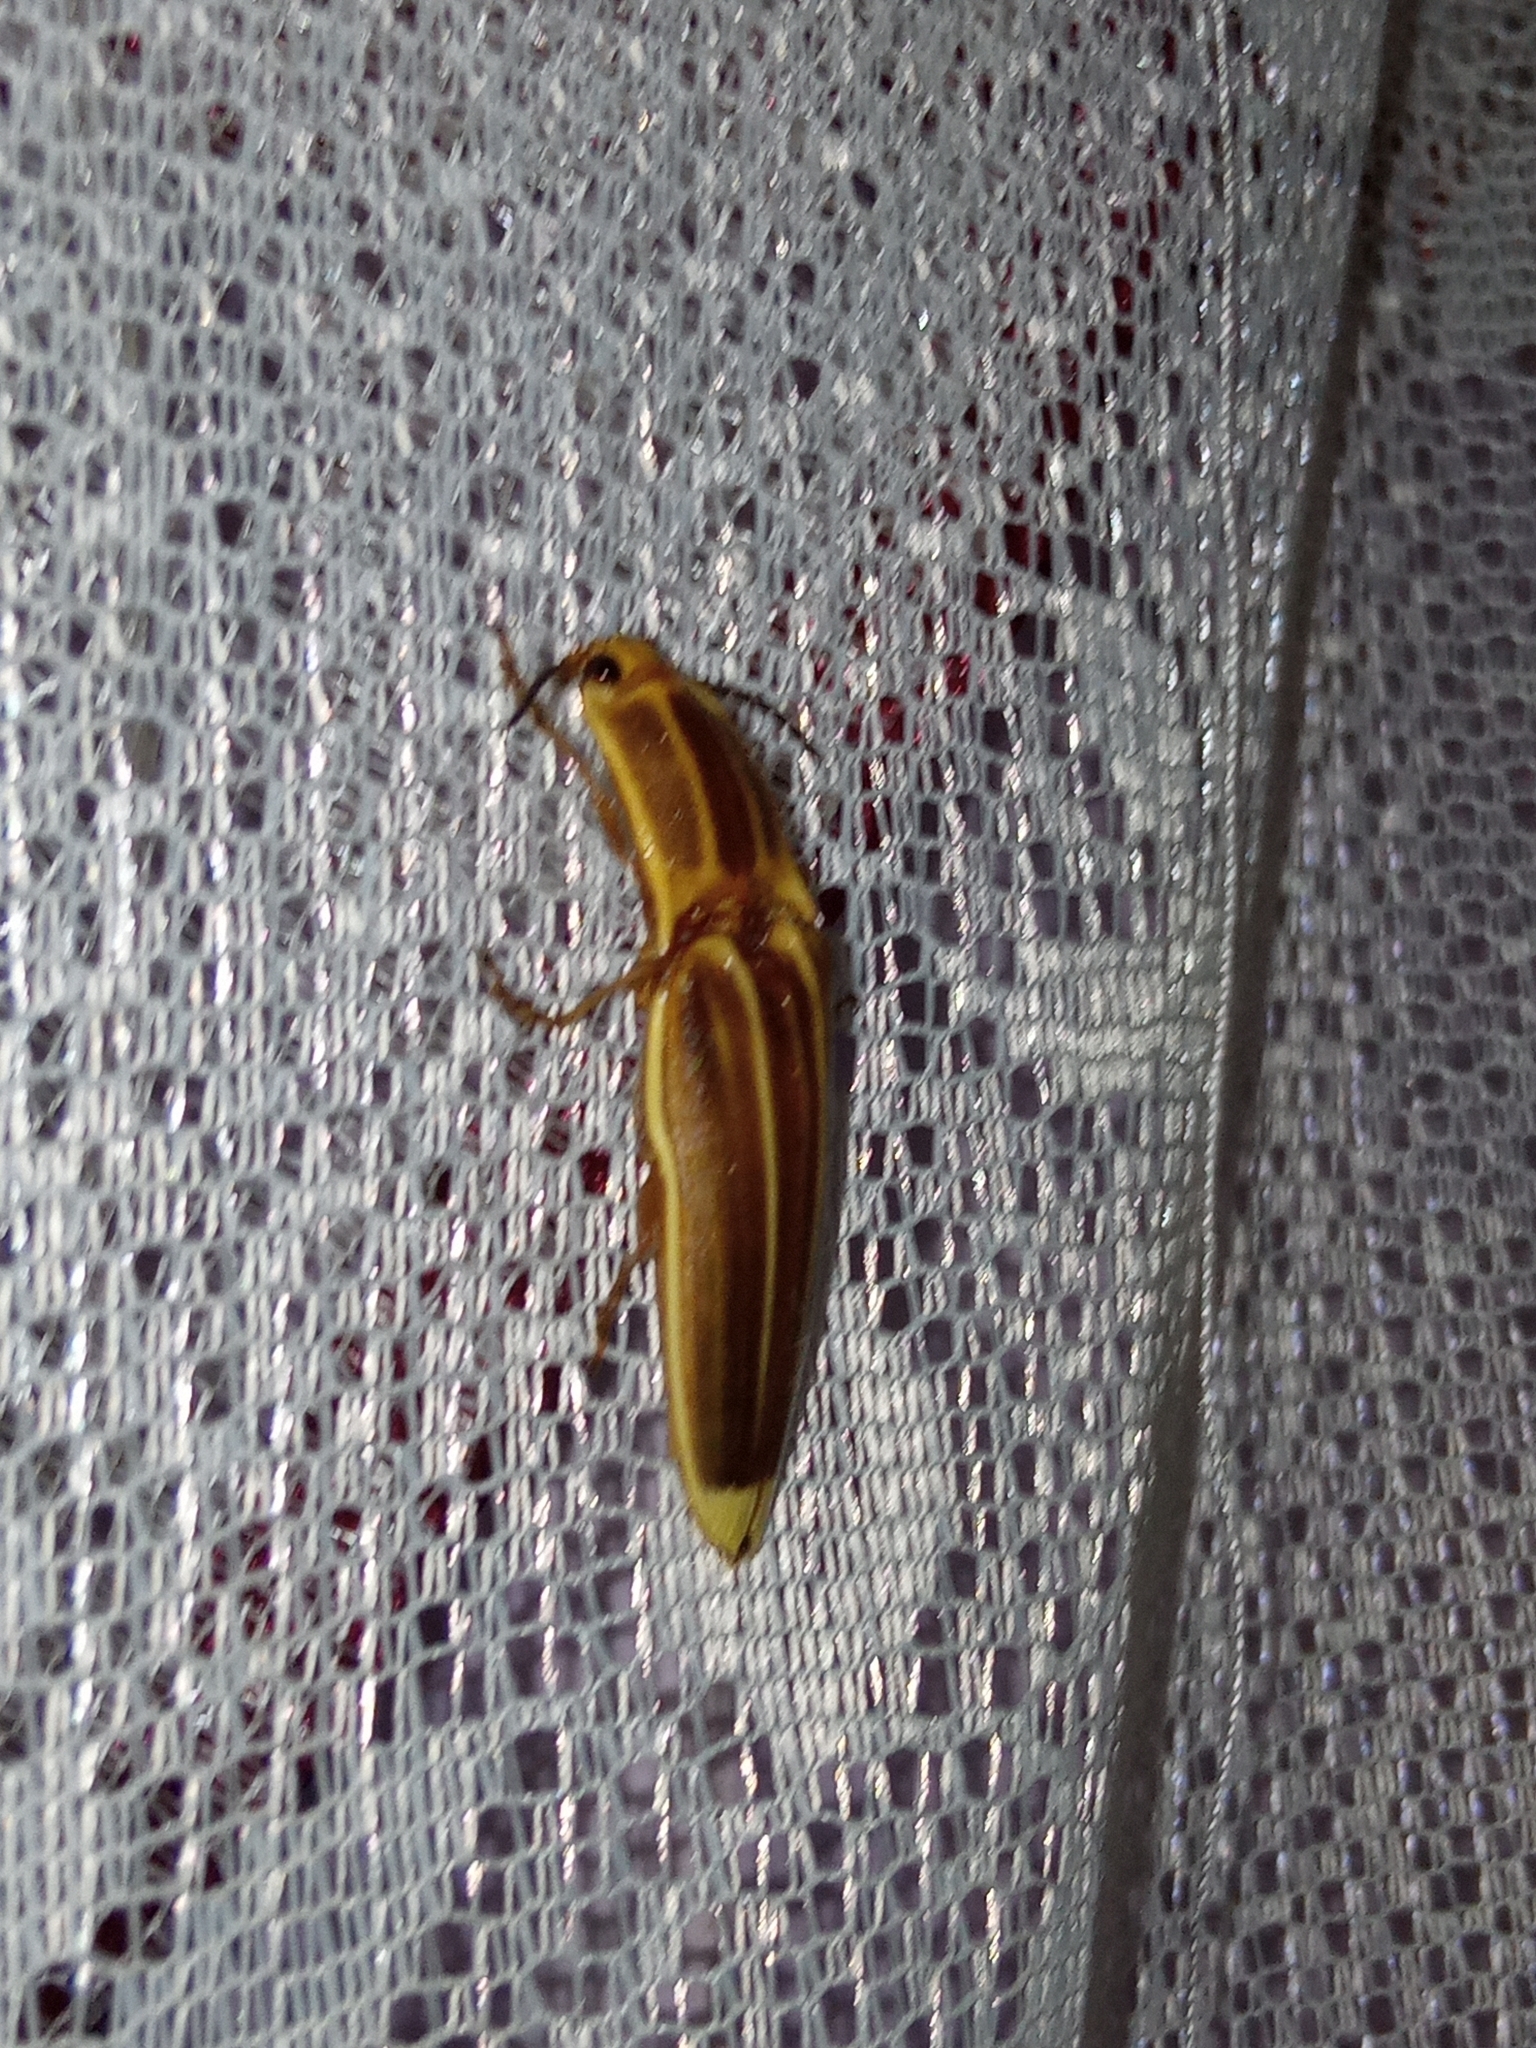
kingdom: Animalia
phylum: Arthropoda
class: Insecta
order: Coleoptera
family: Elateridae
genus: Semiotus
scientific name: Semiotus ligneus
